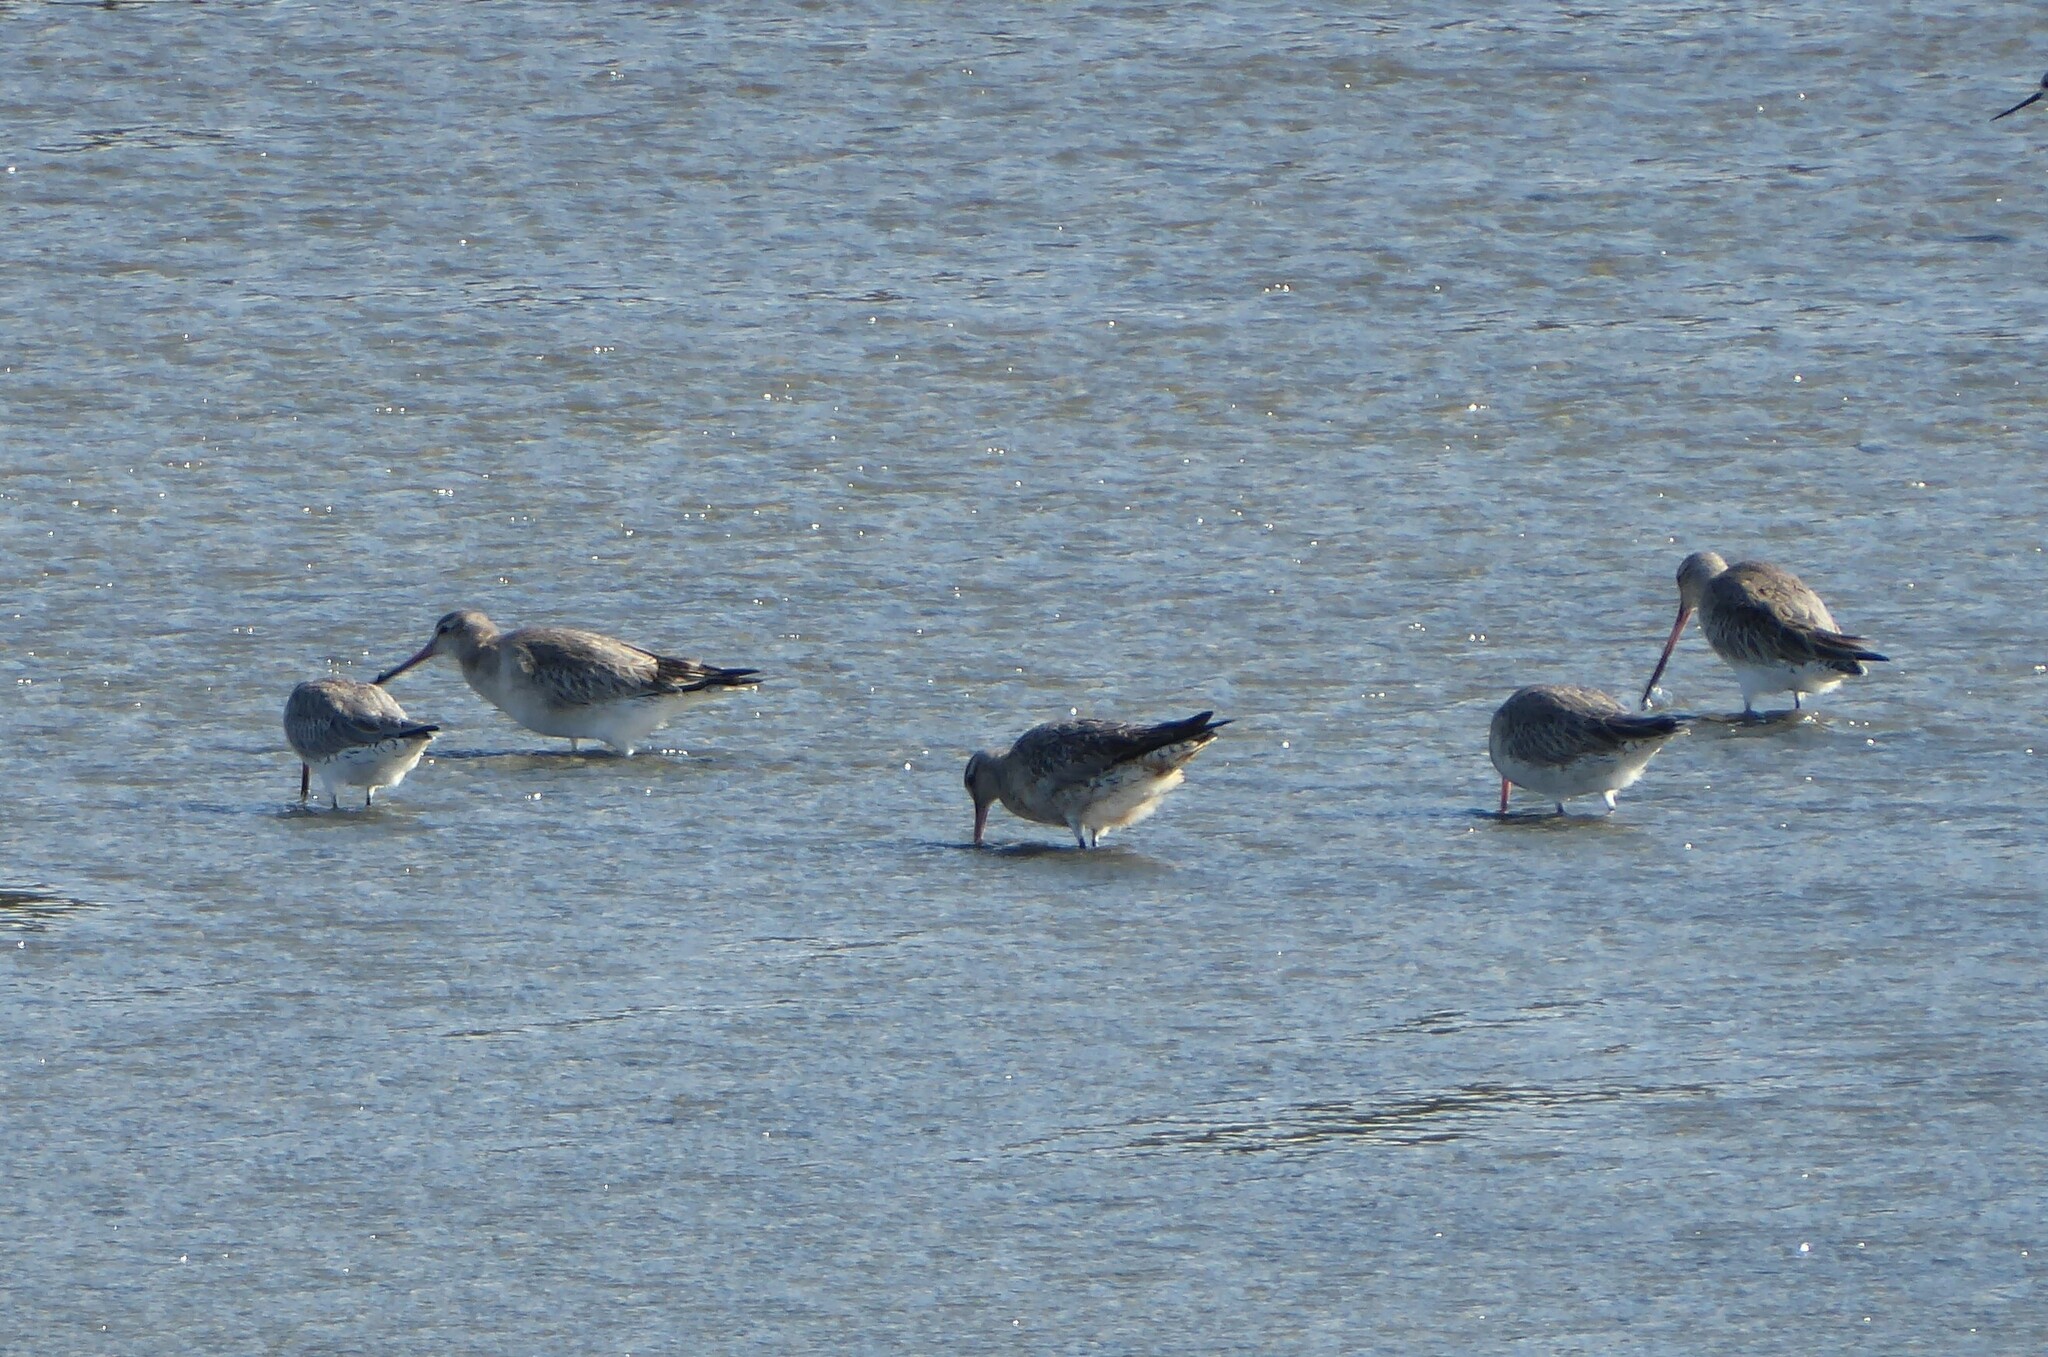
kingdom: Animalia
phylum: Chordata
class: Aves
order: Charadriiformes
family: Scolopacidae
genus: Limosa
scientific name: Limosa lapponica
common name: Bar-tailed godwit
